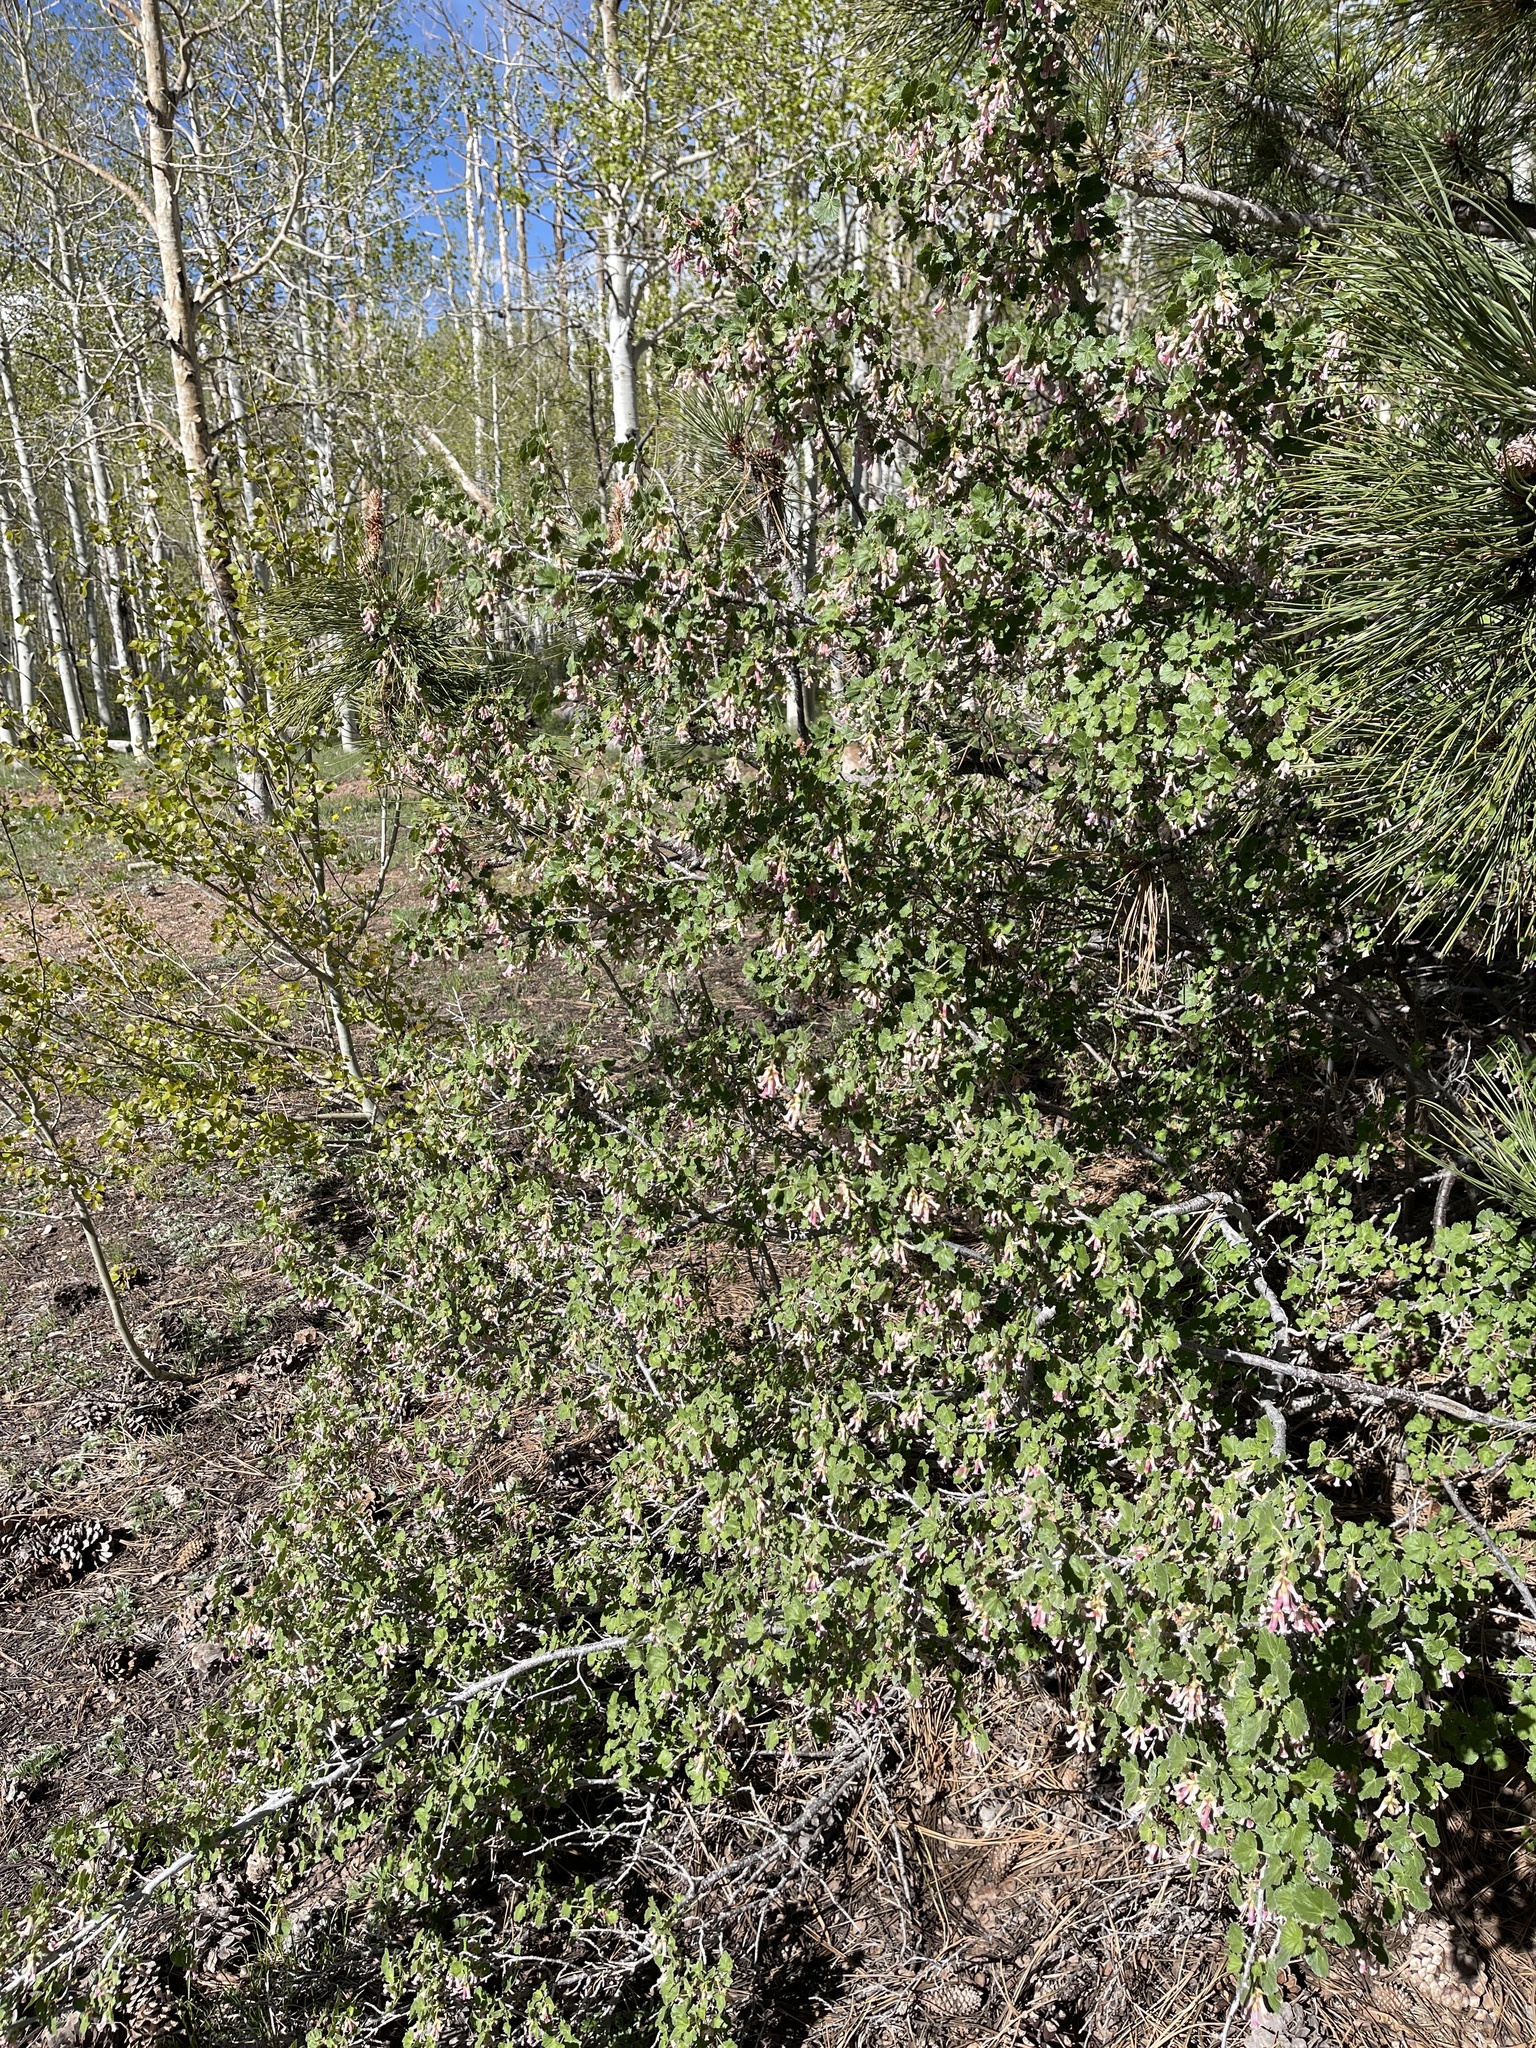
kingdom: Plantae
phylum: Tracheophyta
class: Magnoliopsida
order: Saxifragales
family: Grossulariaceae
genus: Ribes
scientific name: Ribes cereum
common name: Wax currant
